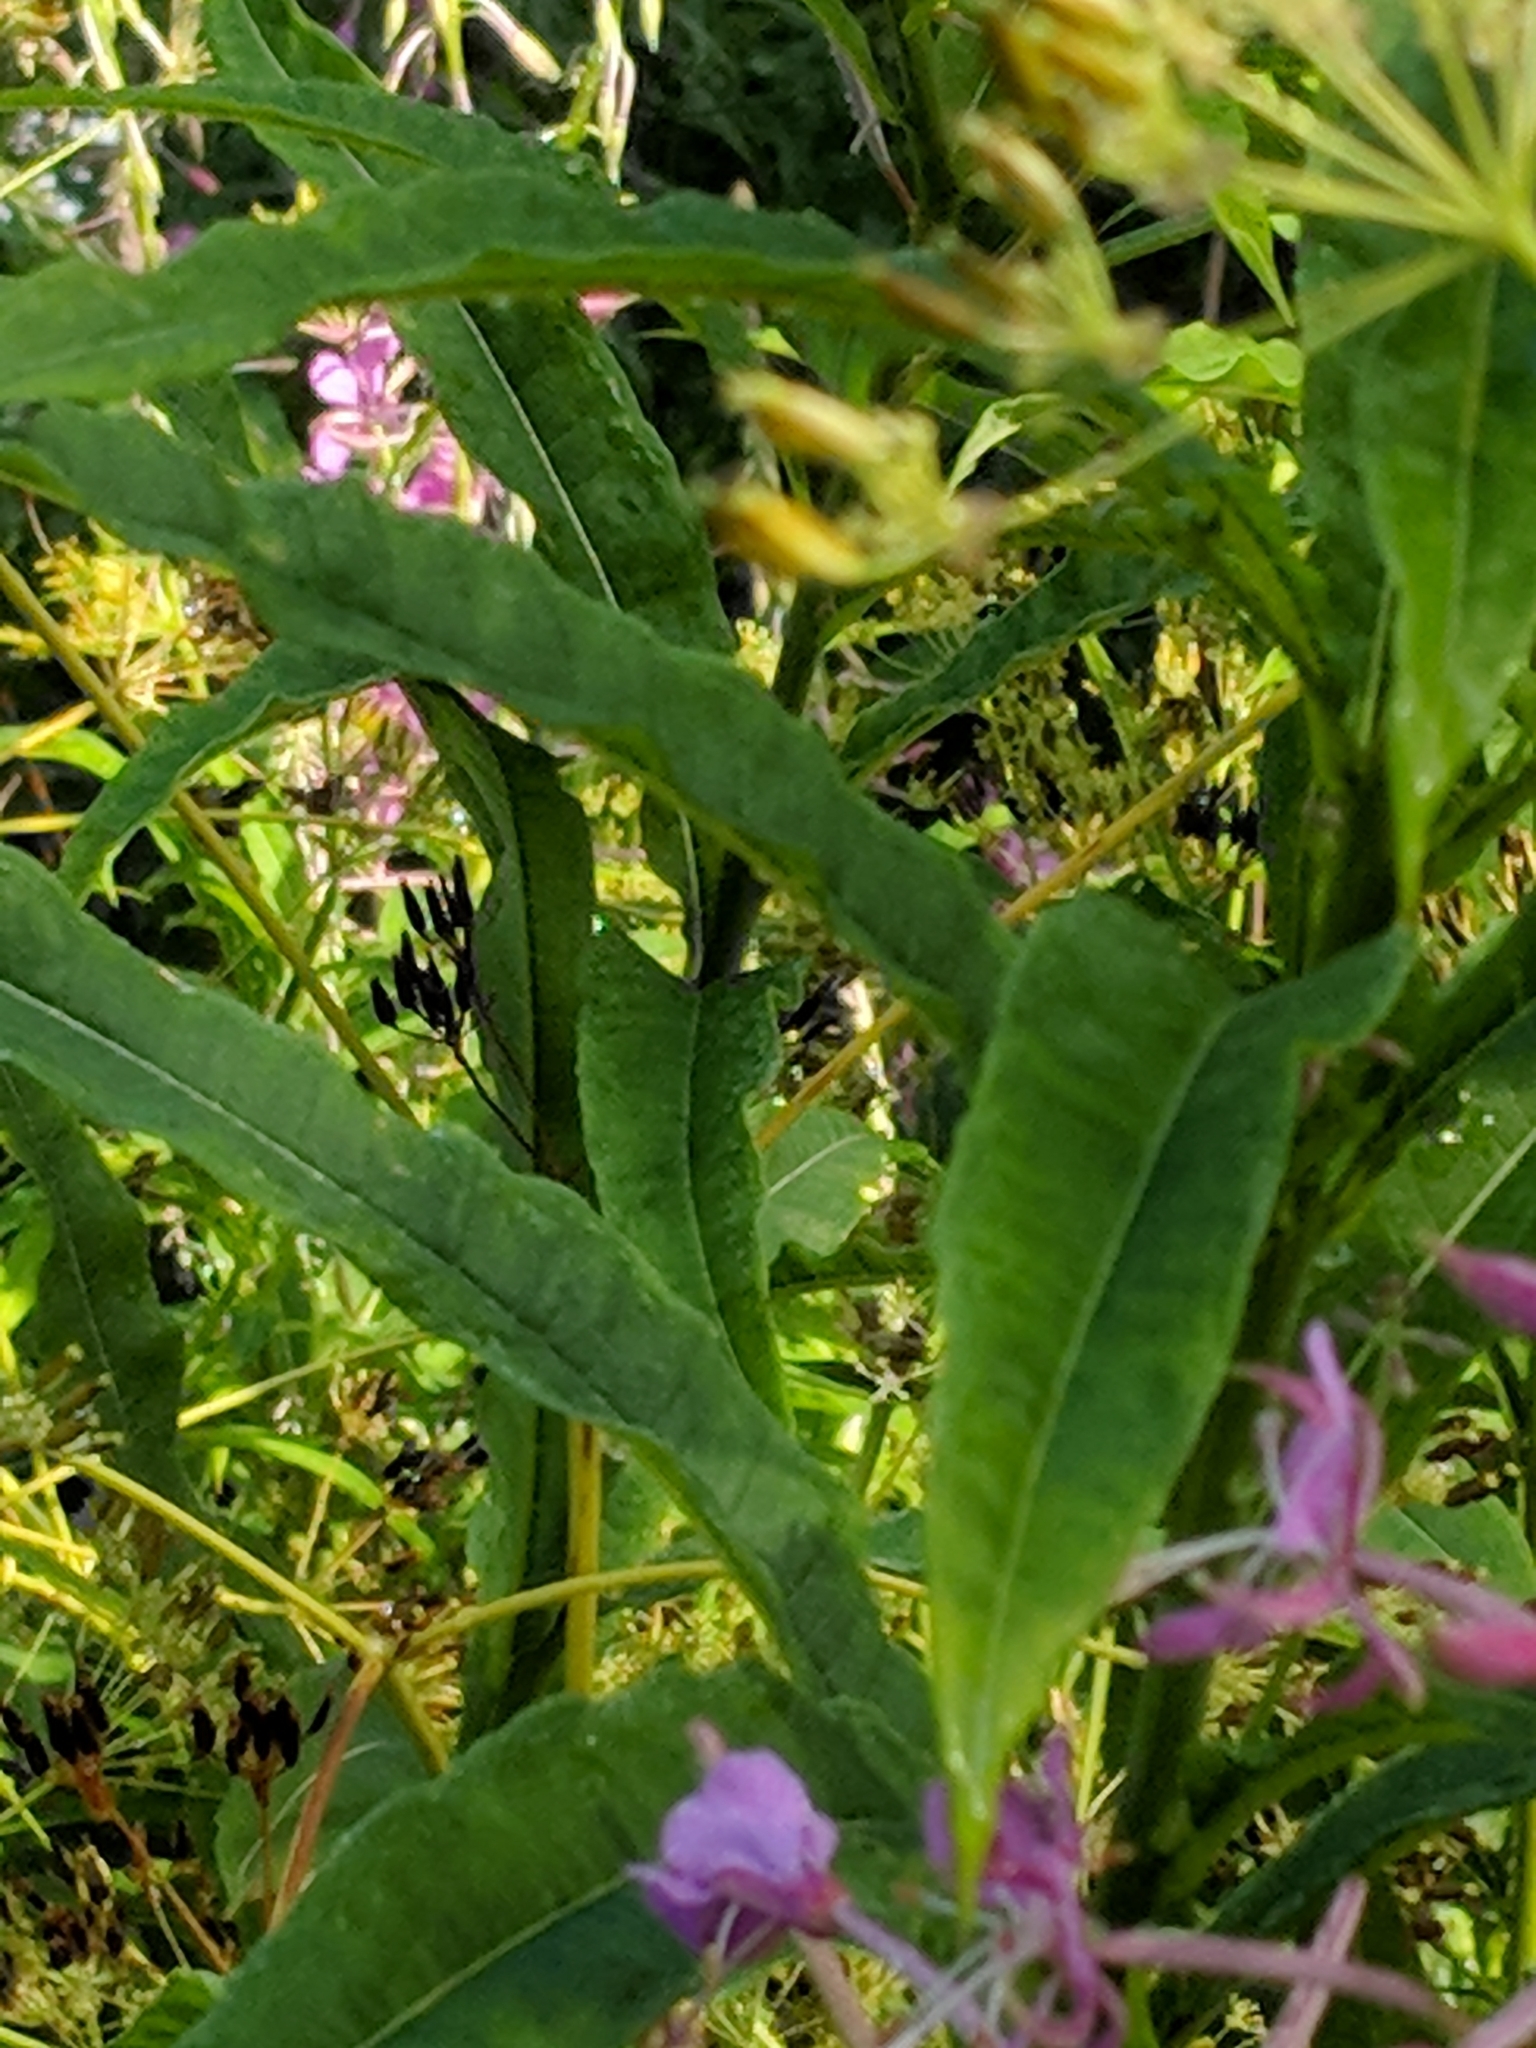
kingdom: Plantae
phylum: Tracheophyta
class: Magnoliopsida
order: Myrtales
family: Onagraceae
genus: Chamaenerion
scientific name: Chamaenerion angustifolium
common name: Fireweed
